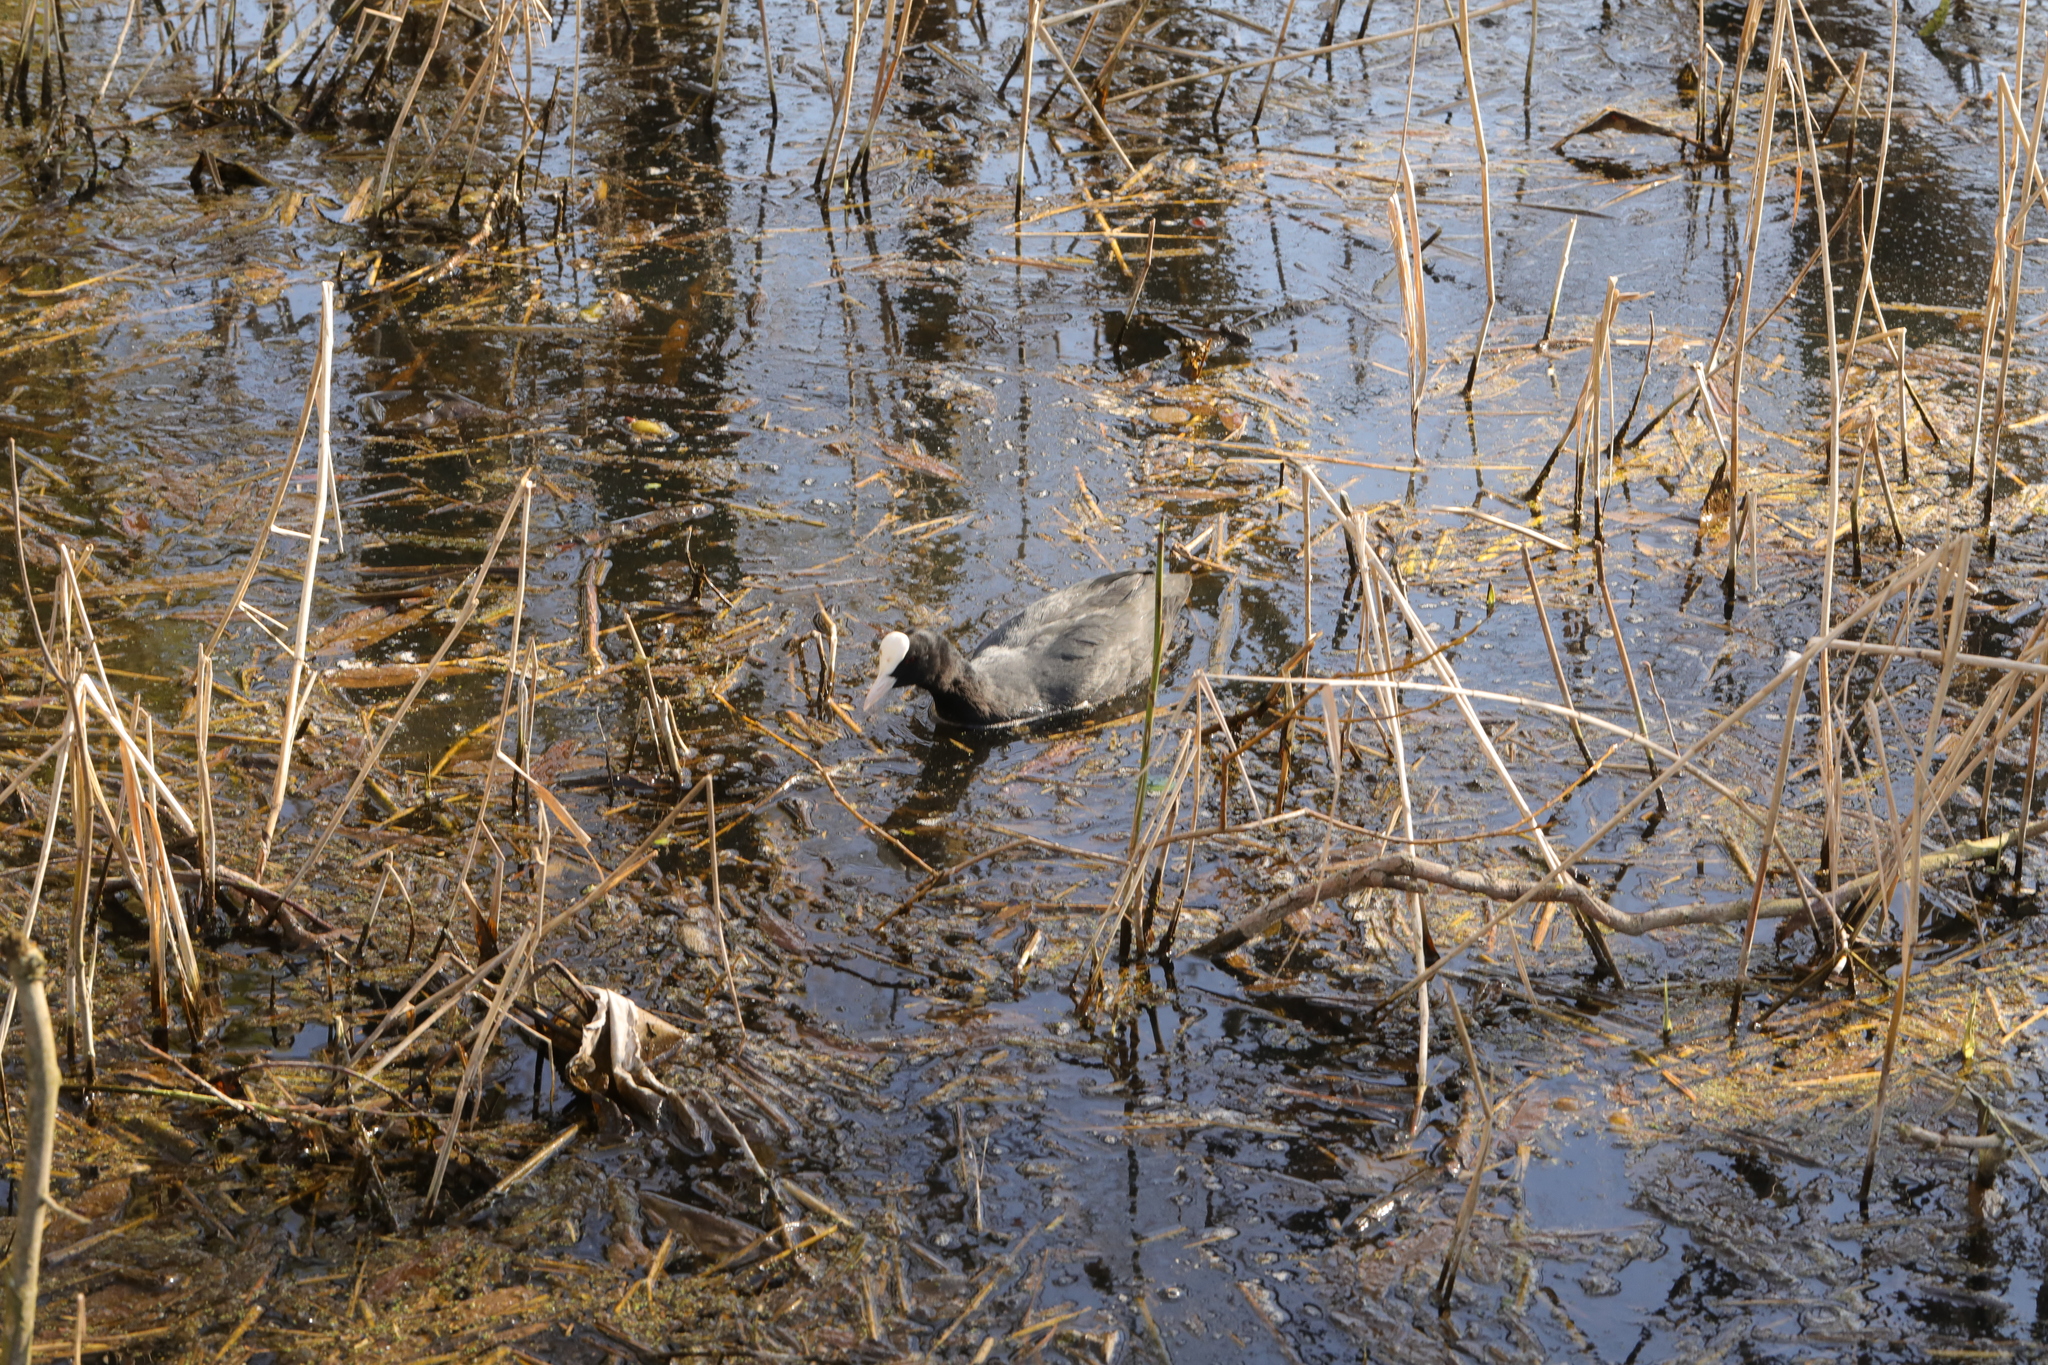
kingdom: Animalia
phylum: Chordata
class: Aves
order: Gruiformes
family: Rallidae
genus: Fulica
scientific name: Fulica atra
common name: Eurasian coot
